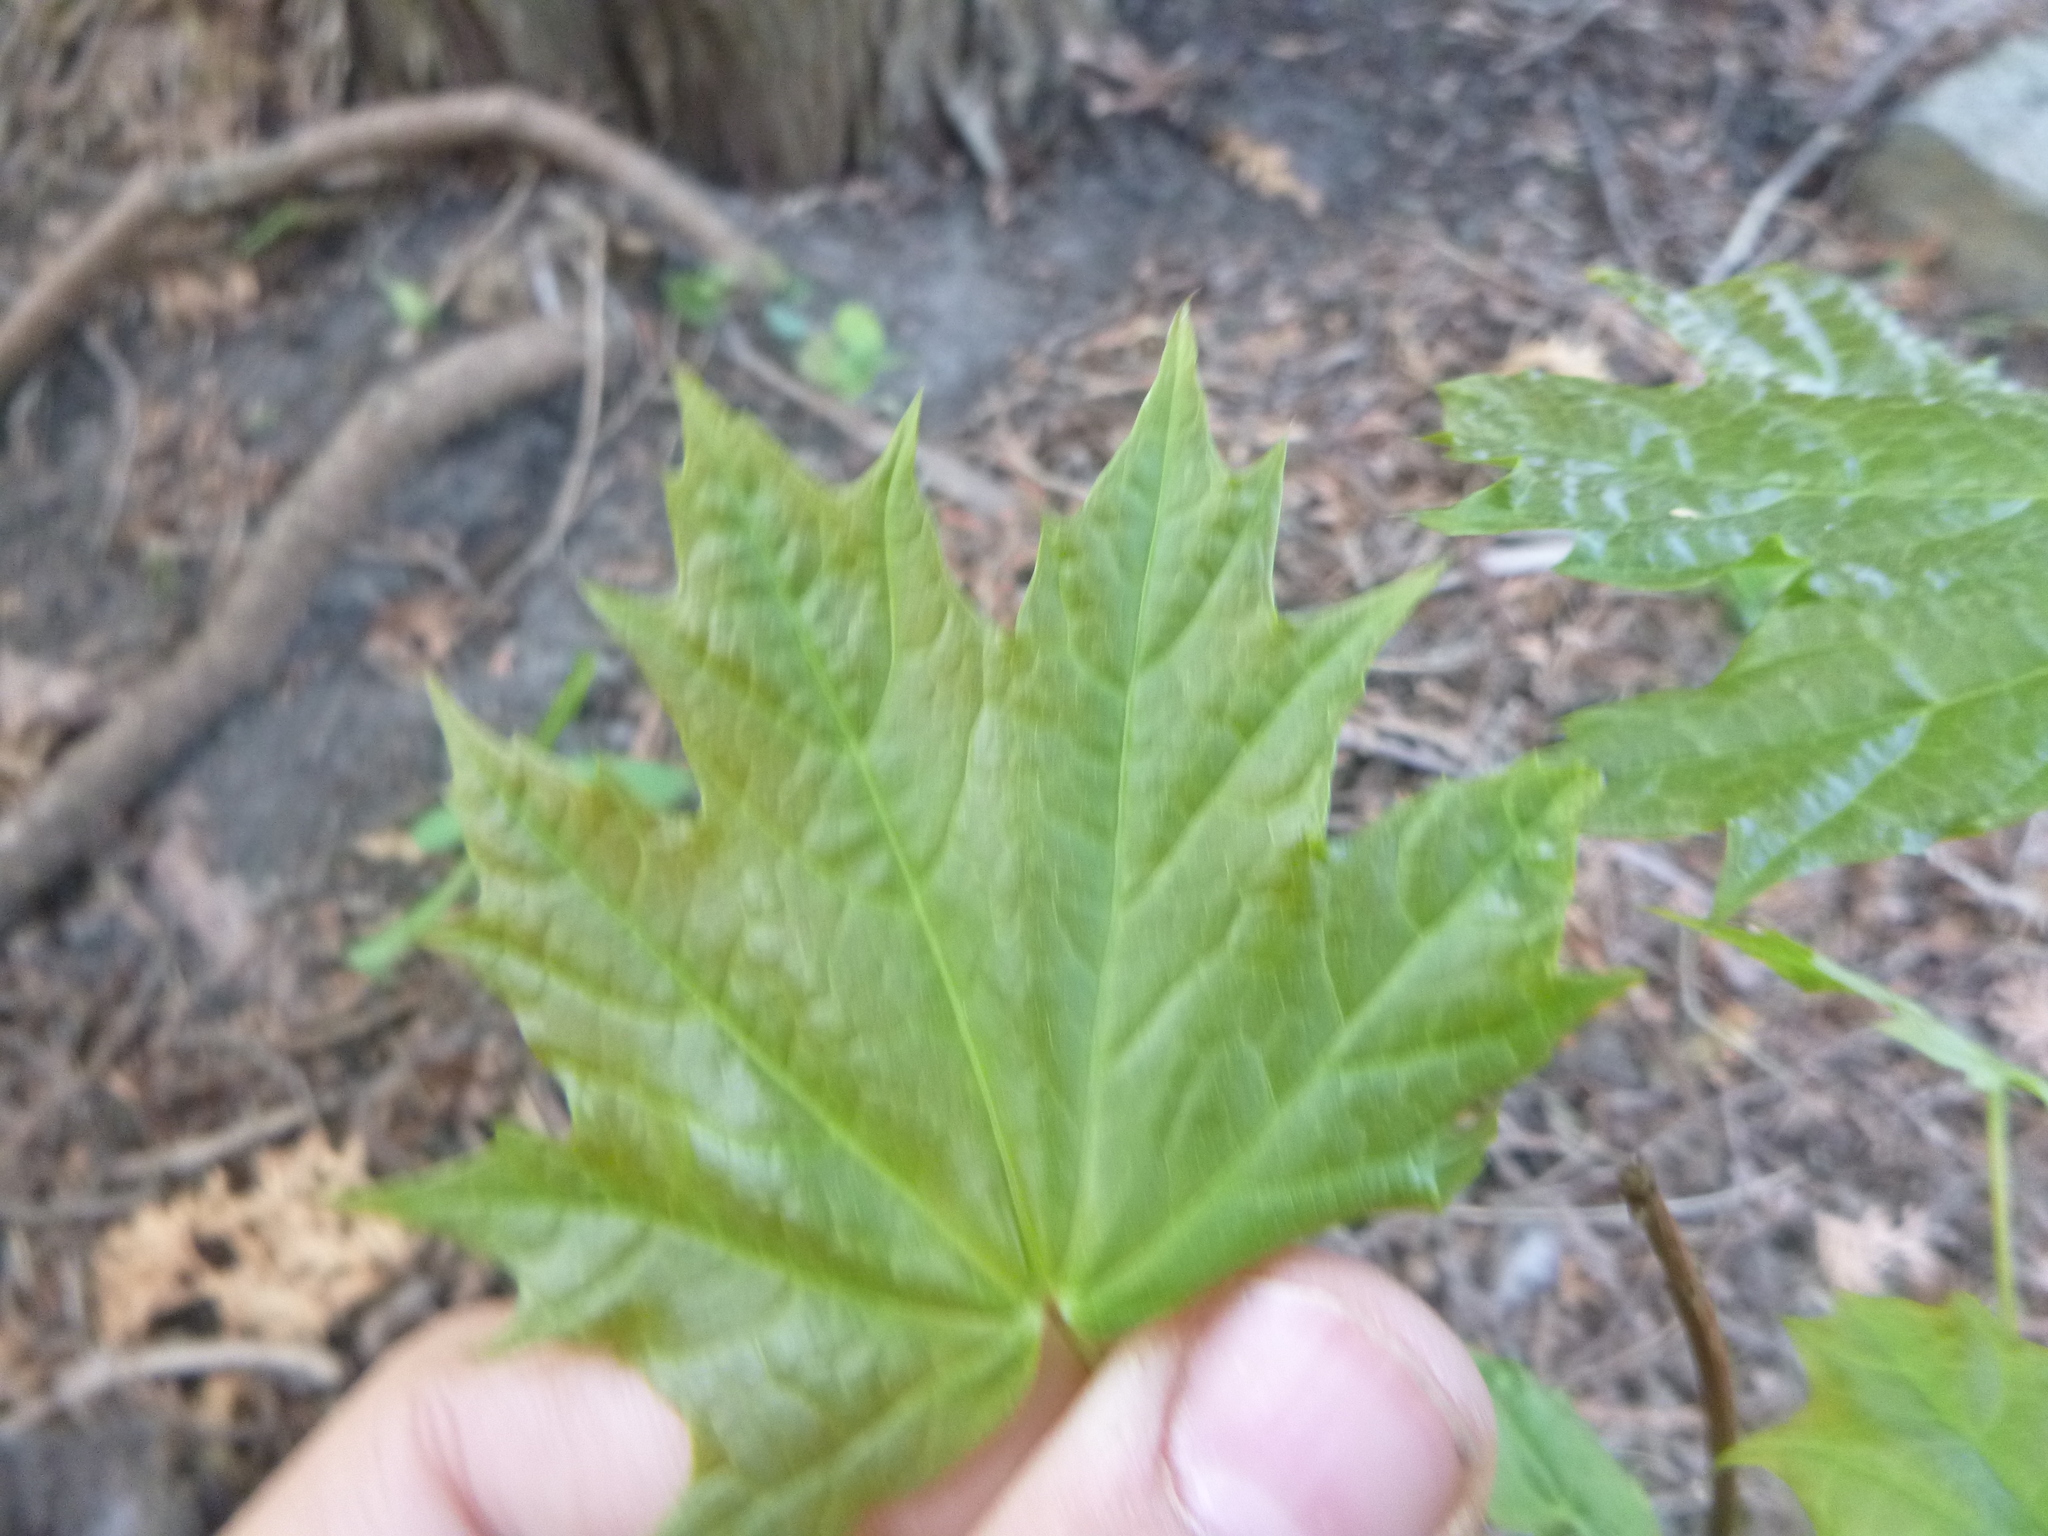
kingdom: Plantae
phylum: Tracheophyta
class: Magnoliopsida
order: Sapindales
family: Sapindaceae
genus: Acer
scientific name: Acer platanoides
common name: Norway maple
